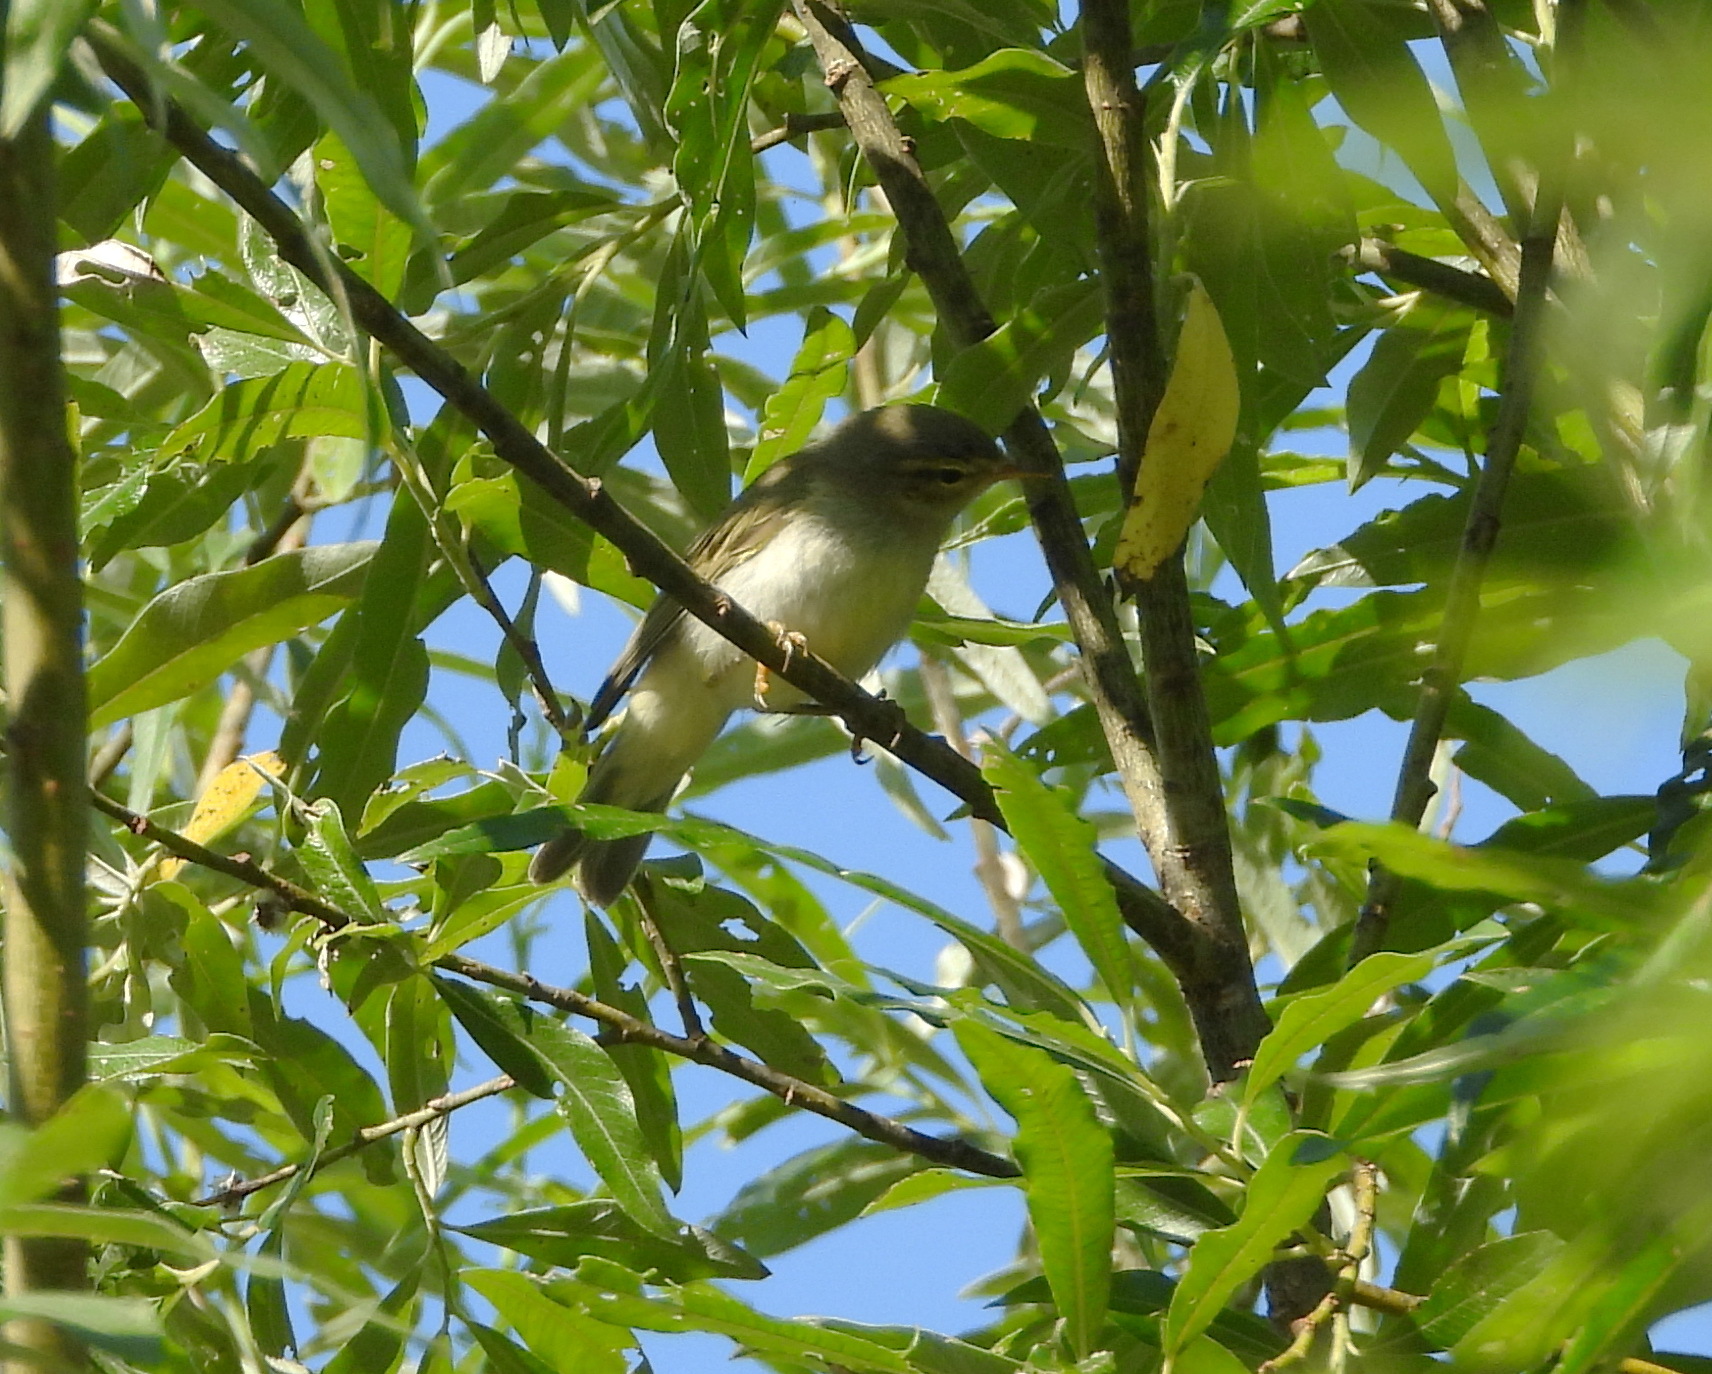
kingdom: Animalia
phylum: Chordata
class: Aves
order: Passeriformes
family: Phylloscopidae
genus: Phylloscopus
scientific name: Phylloscopus trochilus
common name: Willow warbler
